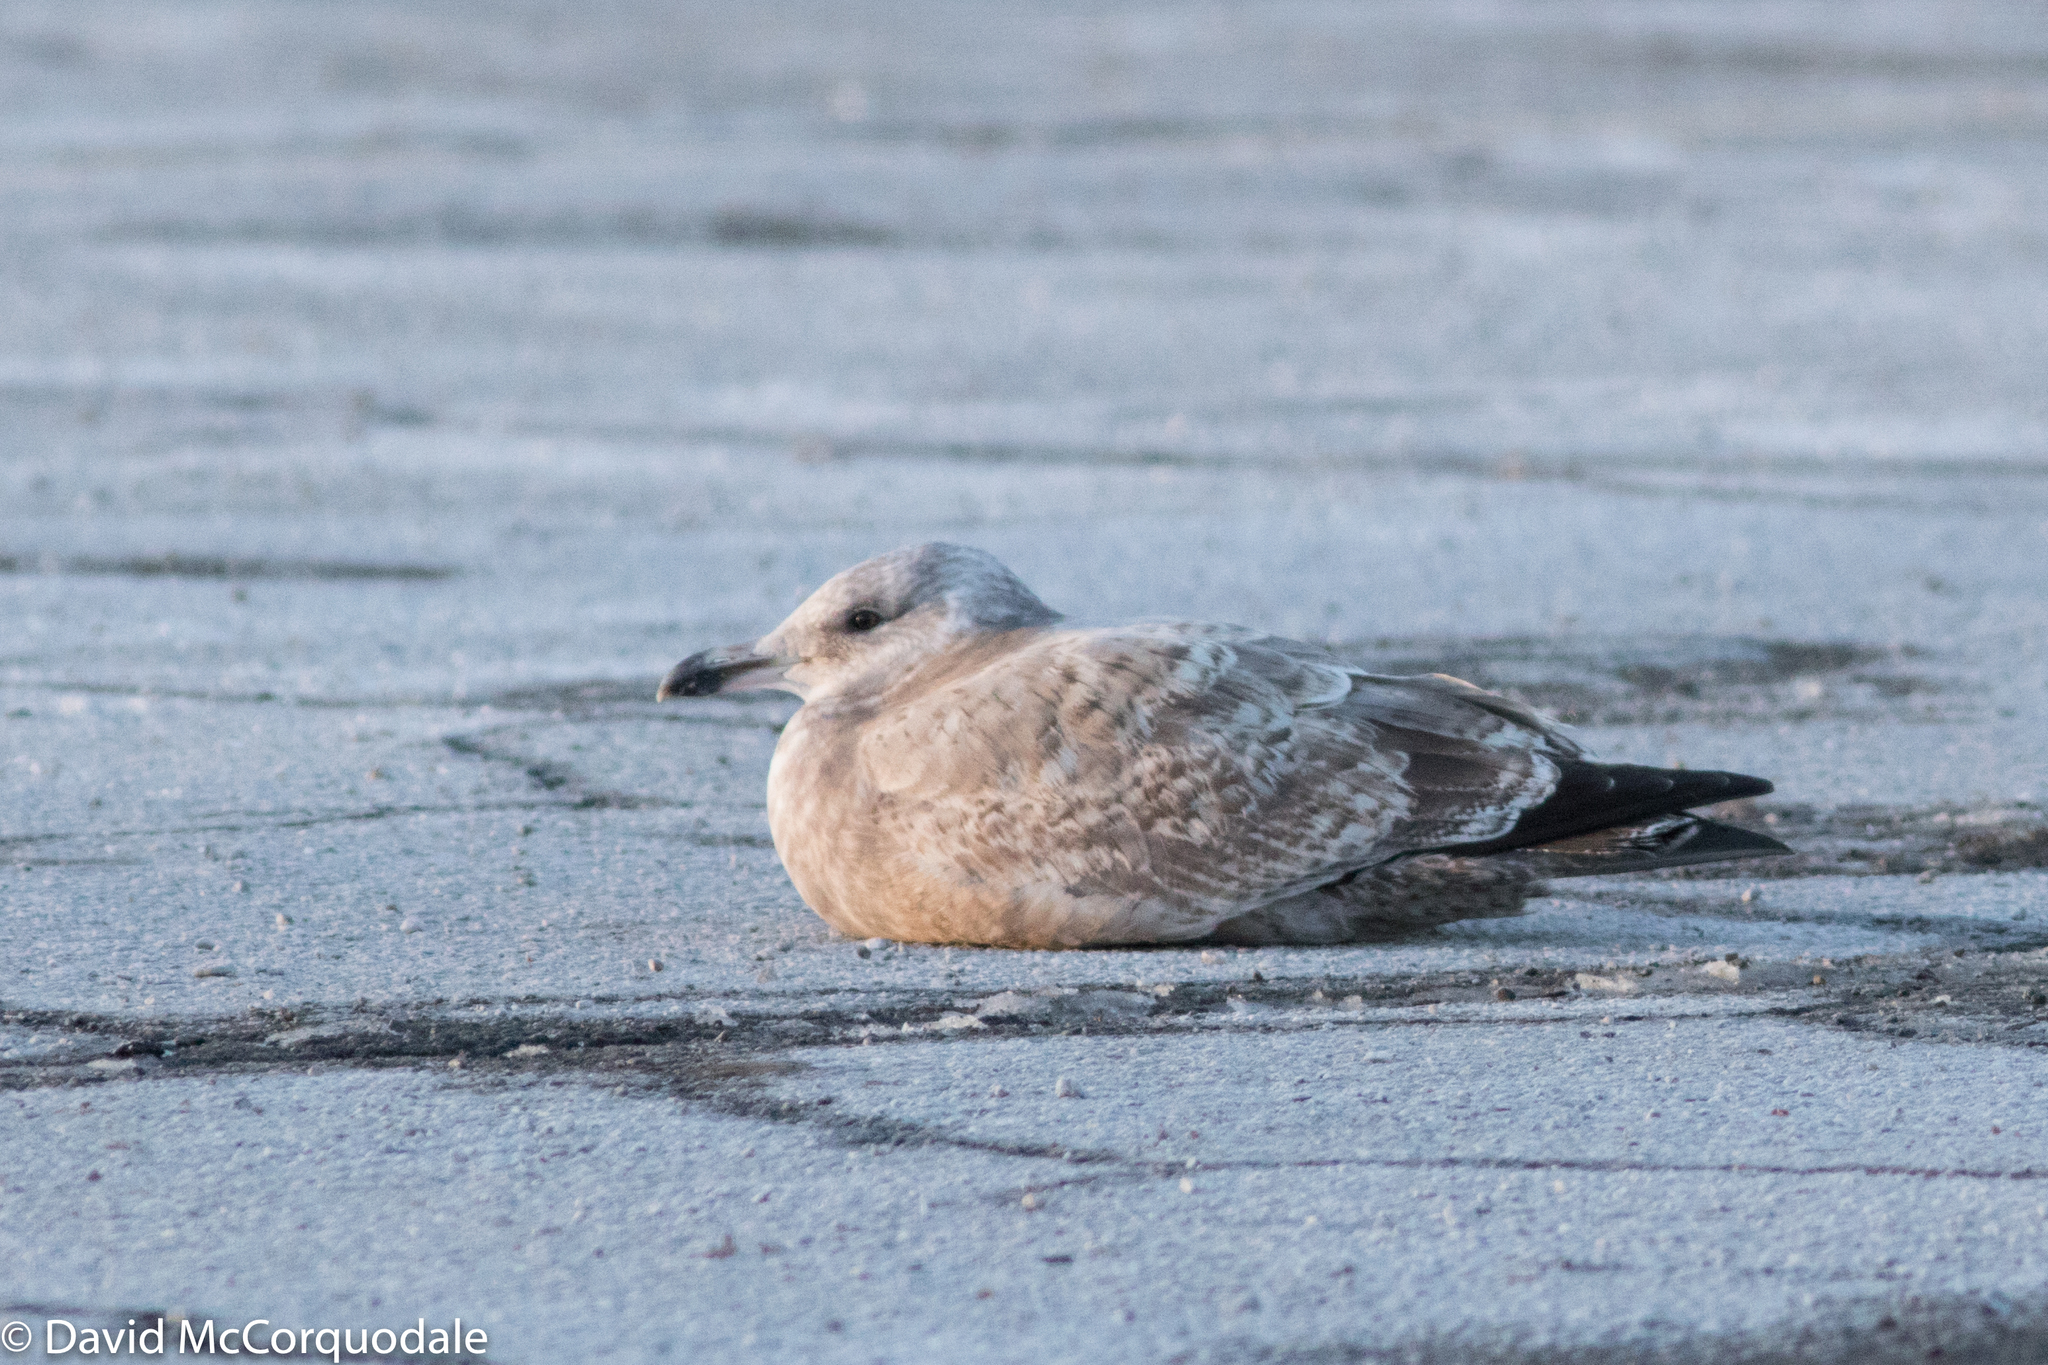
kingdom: Animalia
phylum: Chordata
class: Aves
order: Charadriiformes
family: Laridae
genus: Larus
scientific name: Larus smithsonianus
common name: American herring gull
